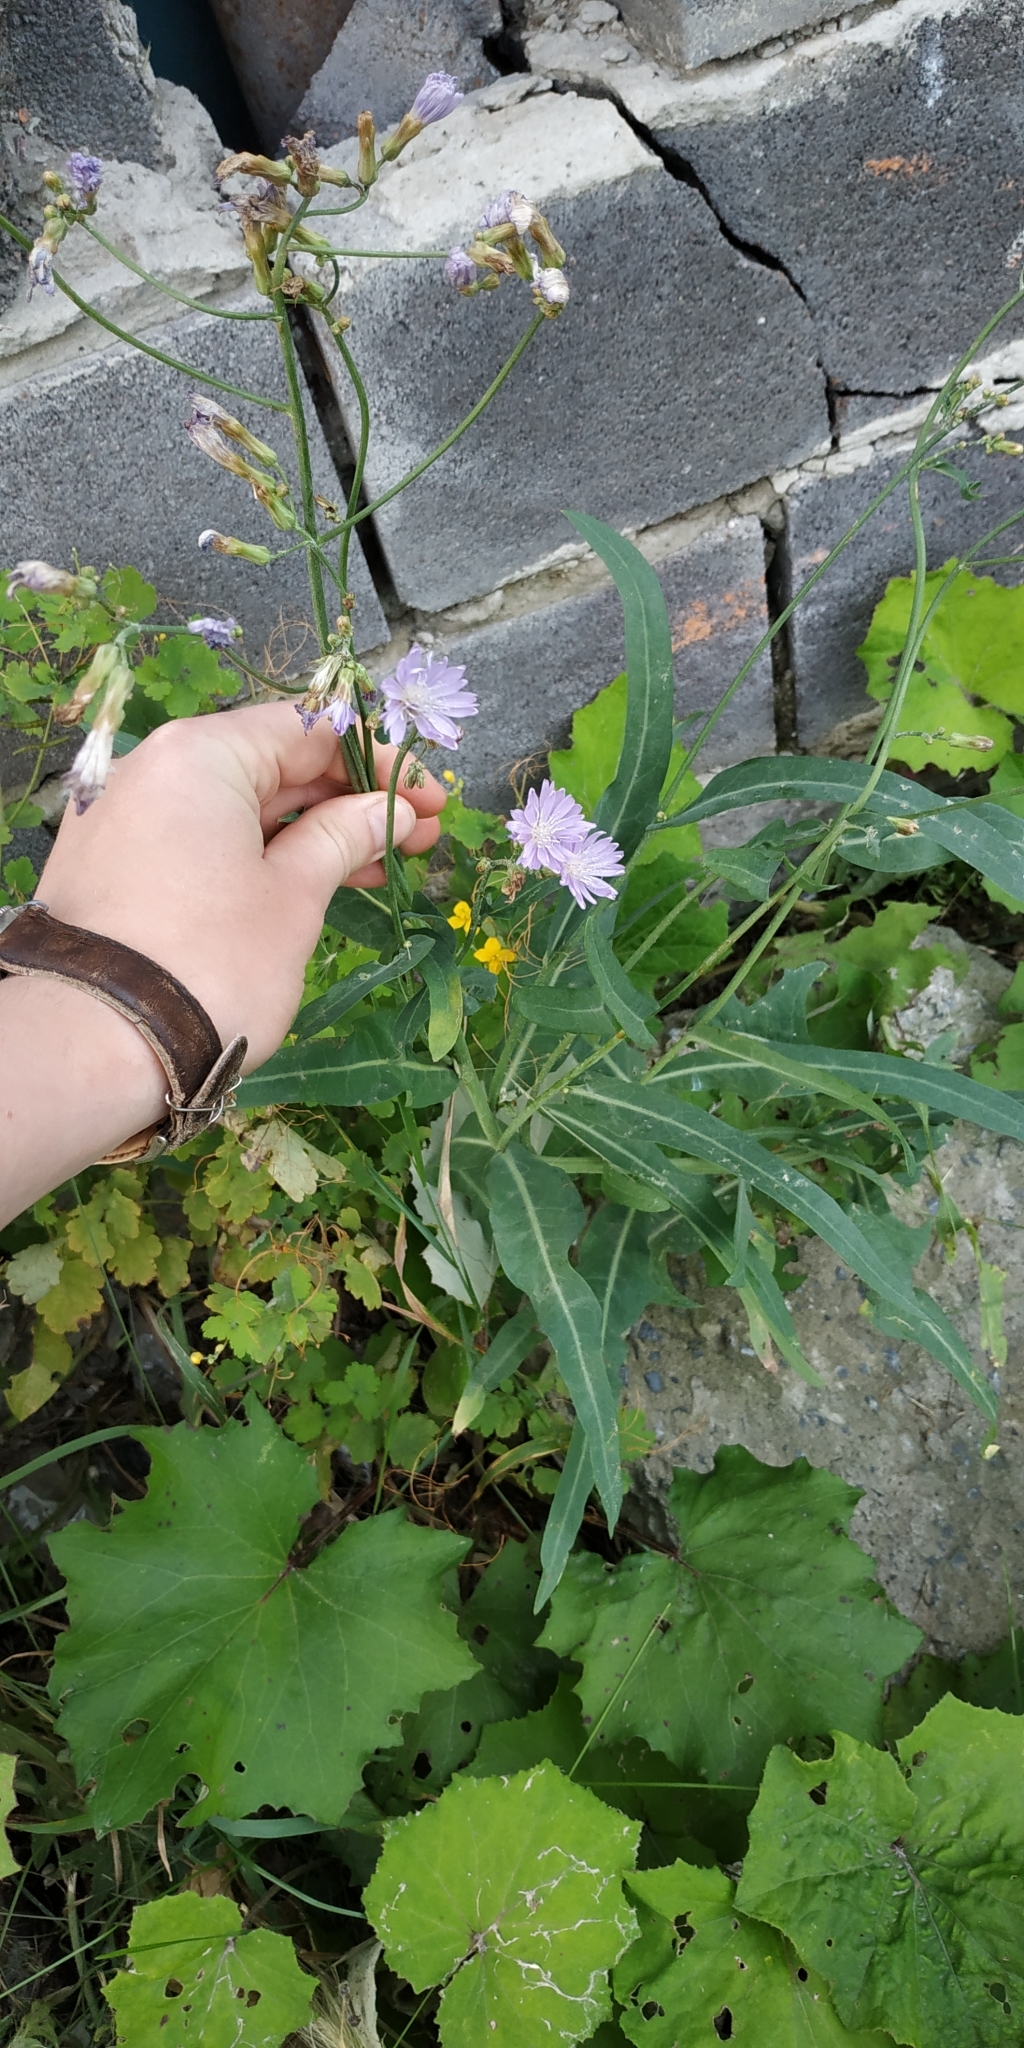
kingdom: Plantae
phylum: Tracheophyta
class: Magnoliopsida
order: Asterales
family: Asteraceae
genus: Lactuca
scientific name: Lactuca tatarica
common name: Blue lettuce
